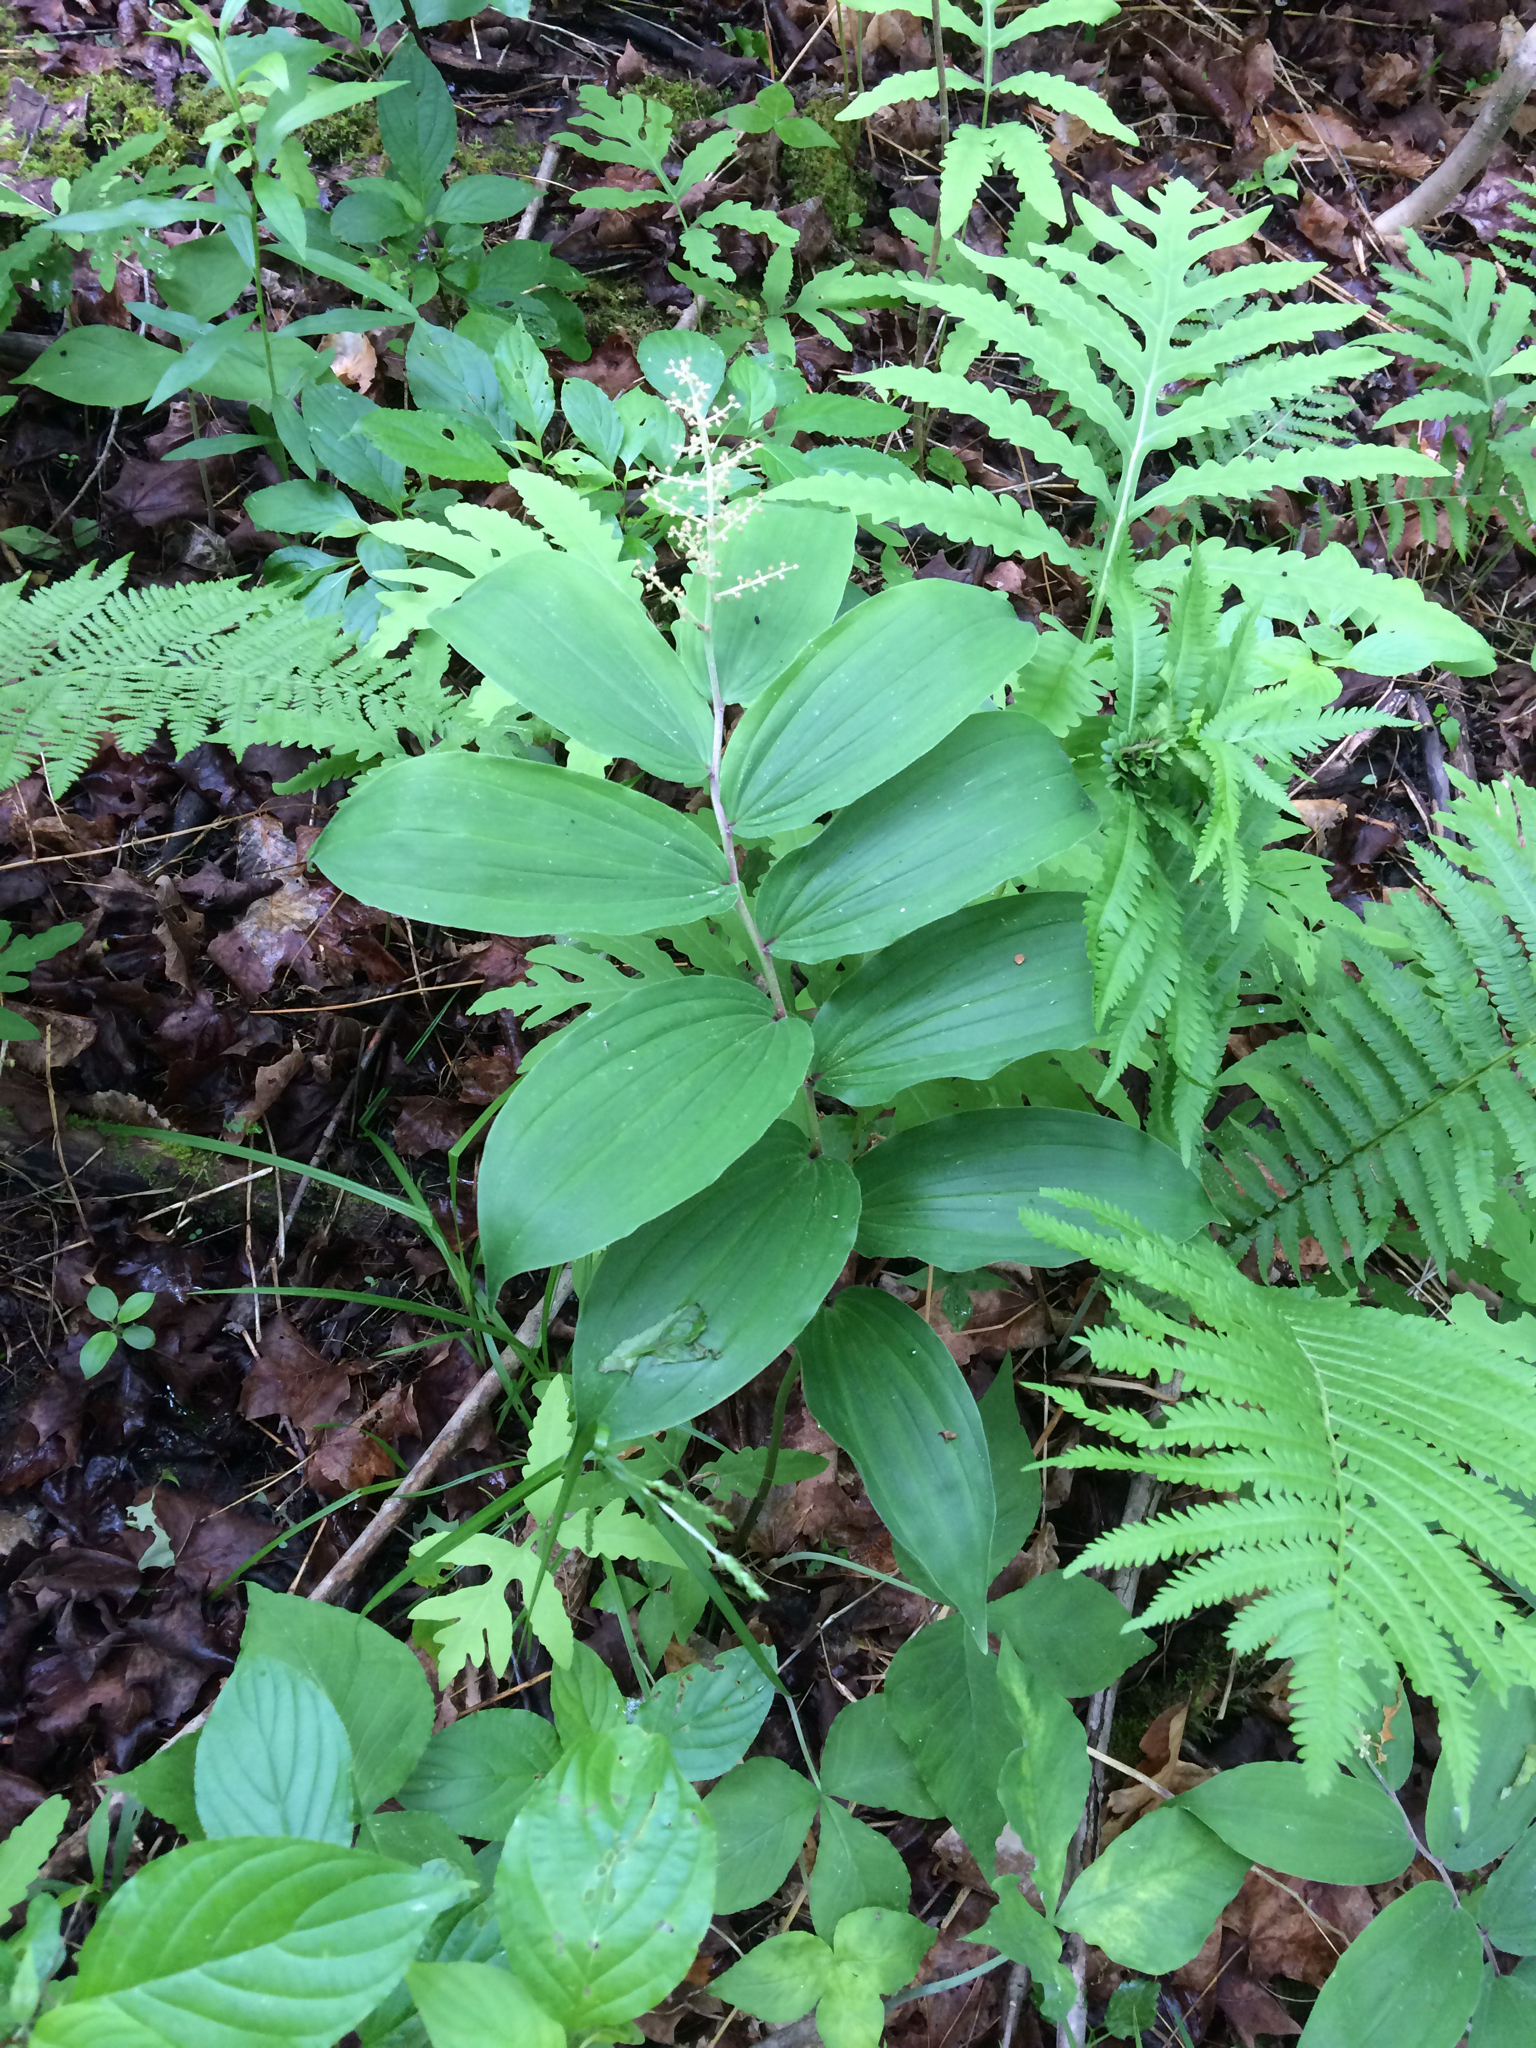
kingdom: Plantae
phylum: Tracheophyta
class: Liliopsida
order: Asparagales
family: Asparagaceae
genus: Maianthemum
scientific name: Maianthemum racemosum
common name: False spikenard
